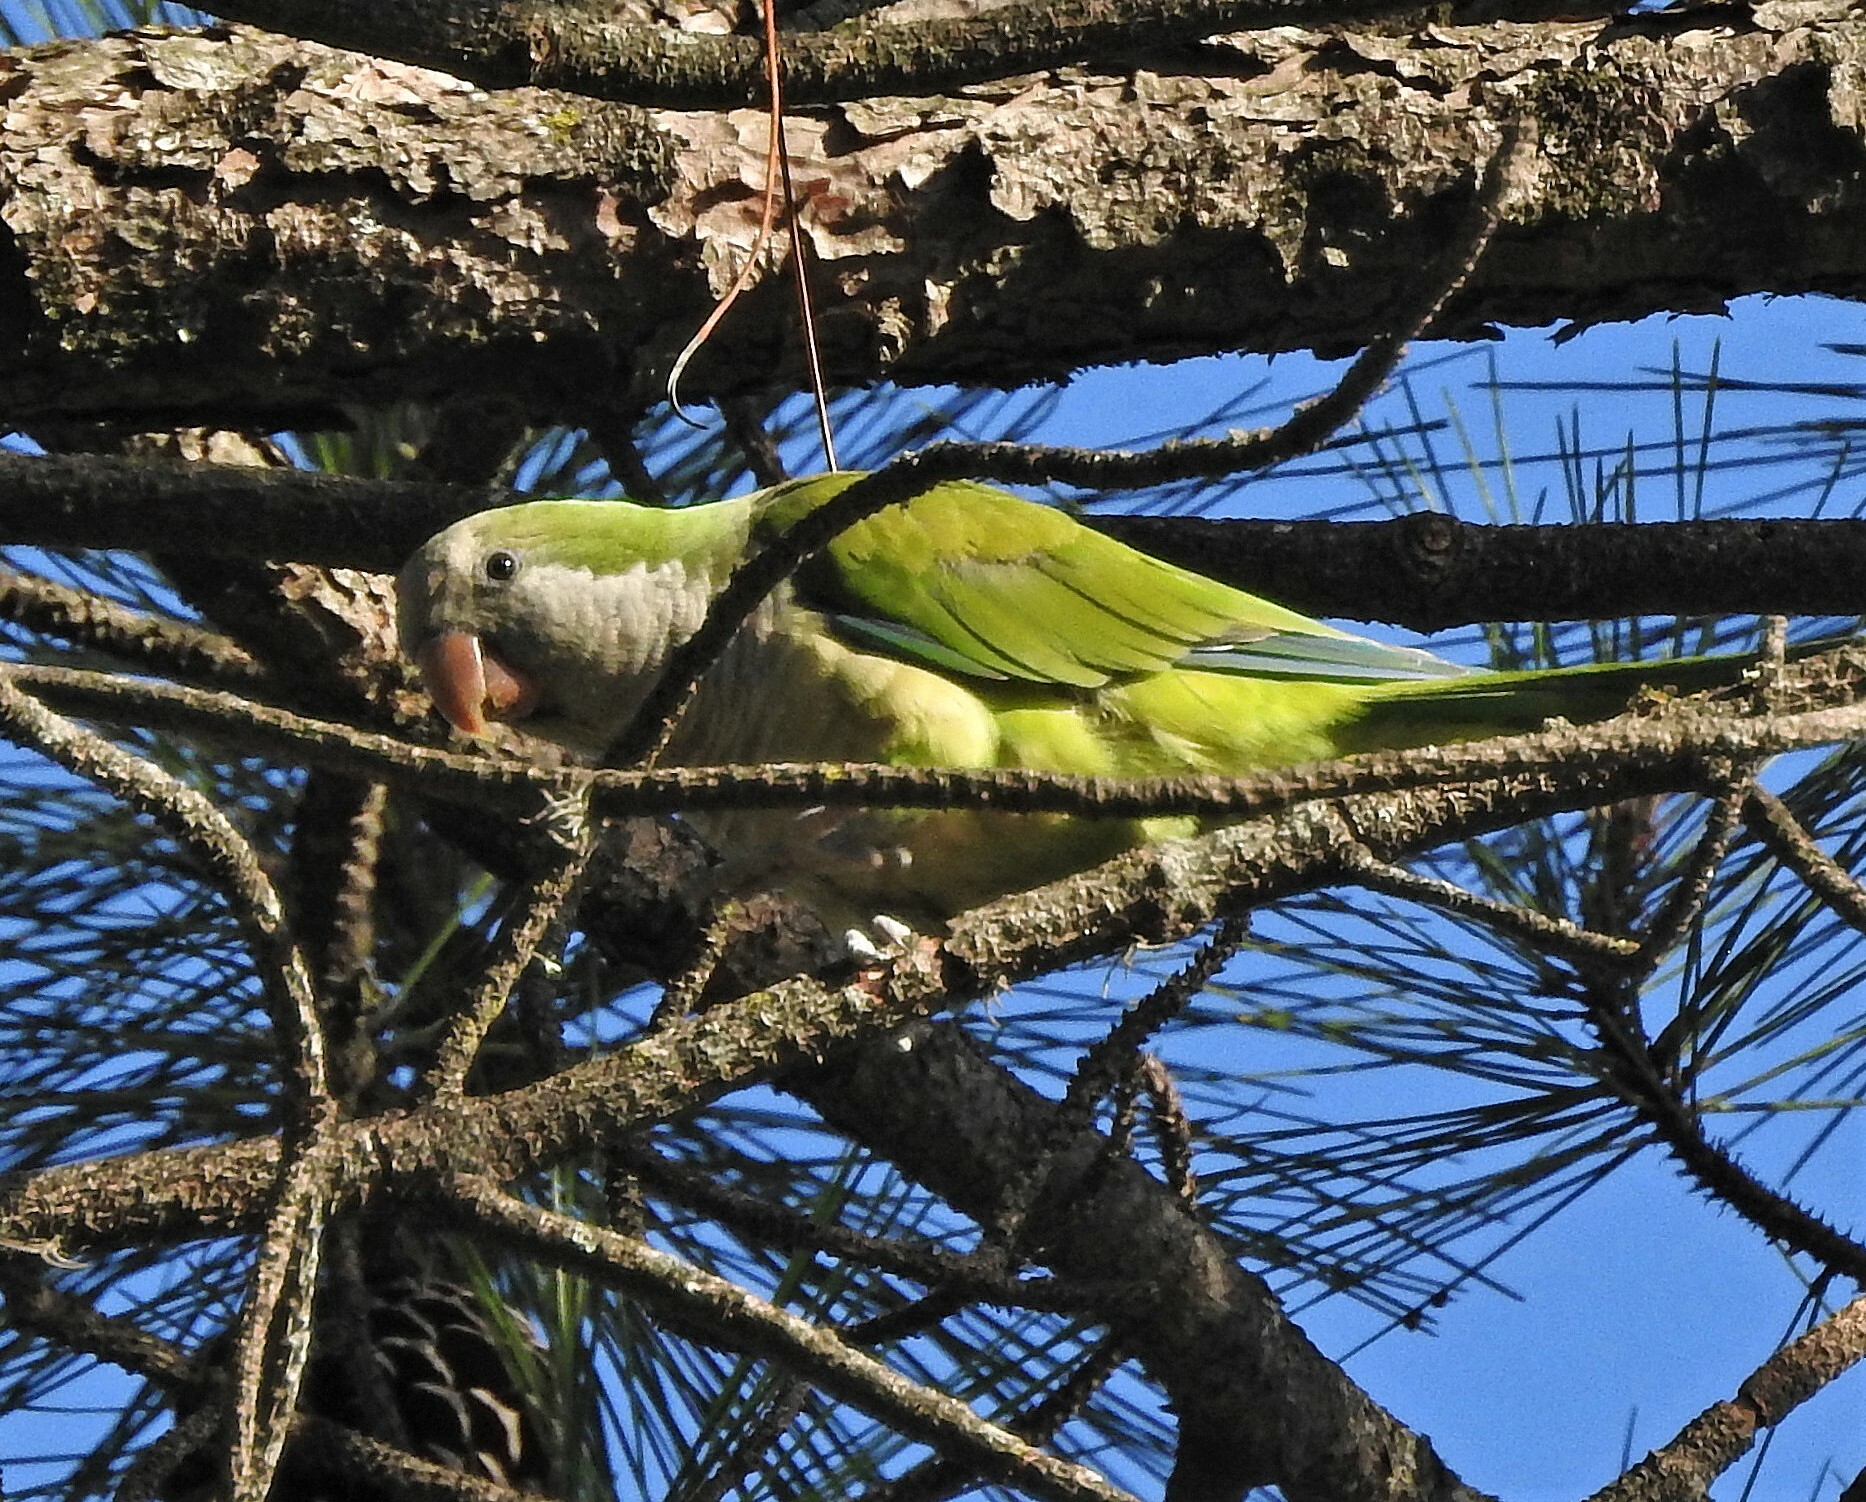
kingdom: Animalia
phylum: Chordata
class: Aves
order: Psittaciformes
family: Psittacidae
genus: Myiopsitta
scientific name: Myiopsitta monachus
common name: Monk parakeet
